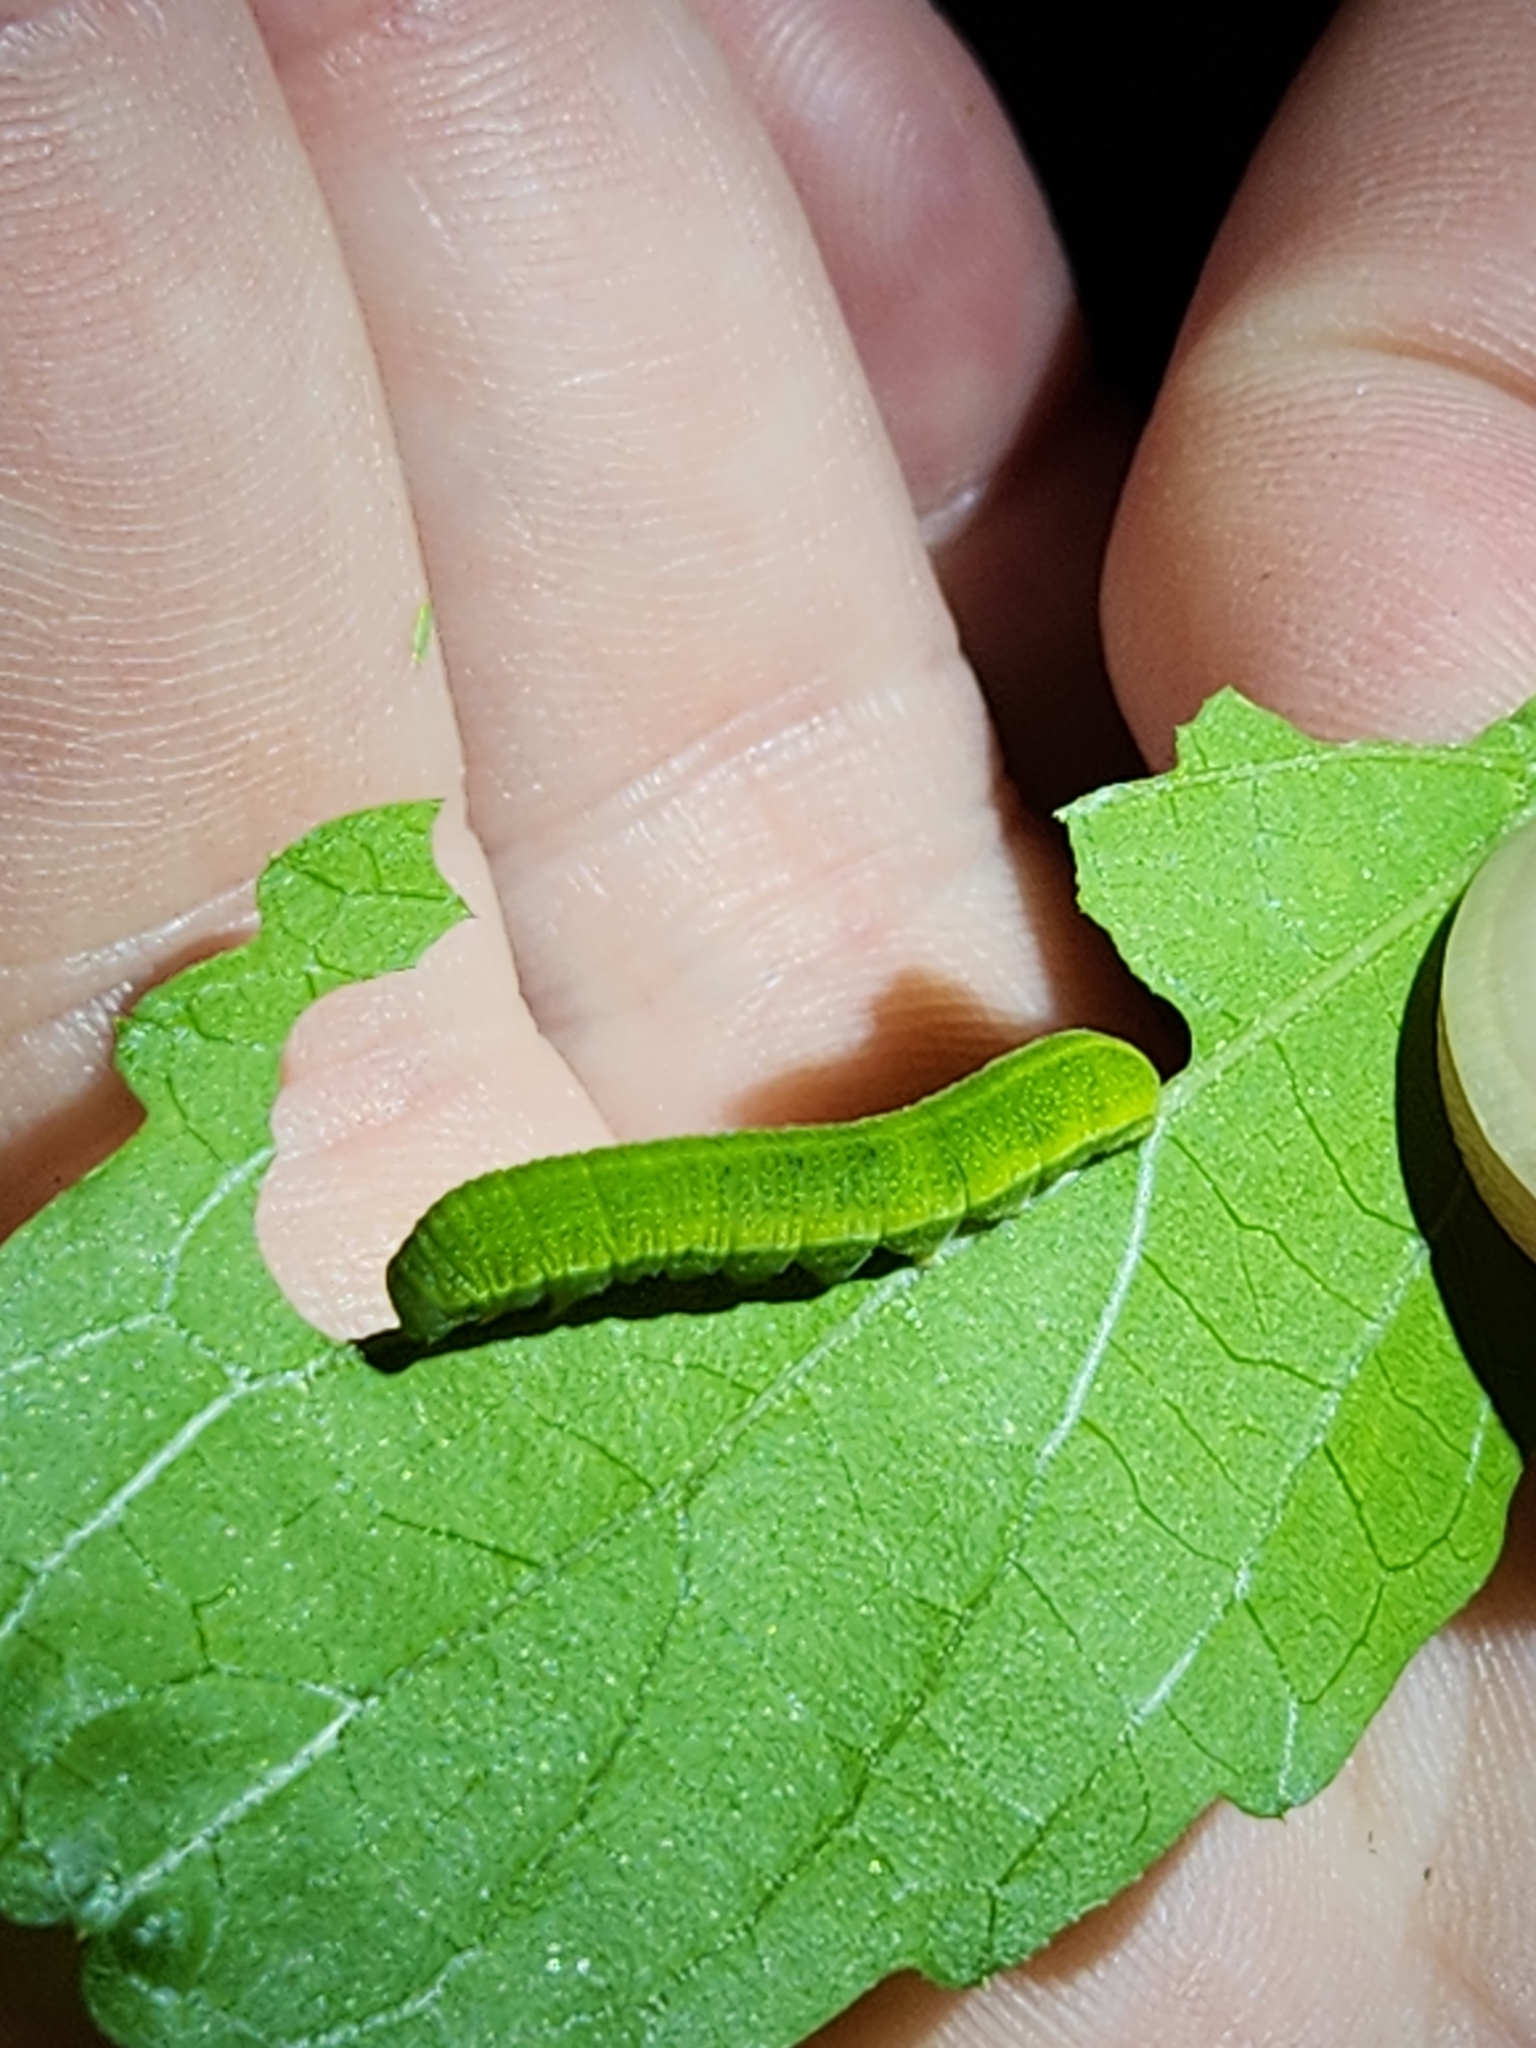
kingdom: Animalia
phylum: Arthropoda
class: Insecta
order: Lepidoptera
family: Nymphalidae
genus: Libytheana
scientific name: Libytheana carinenta
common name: American snout
